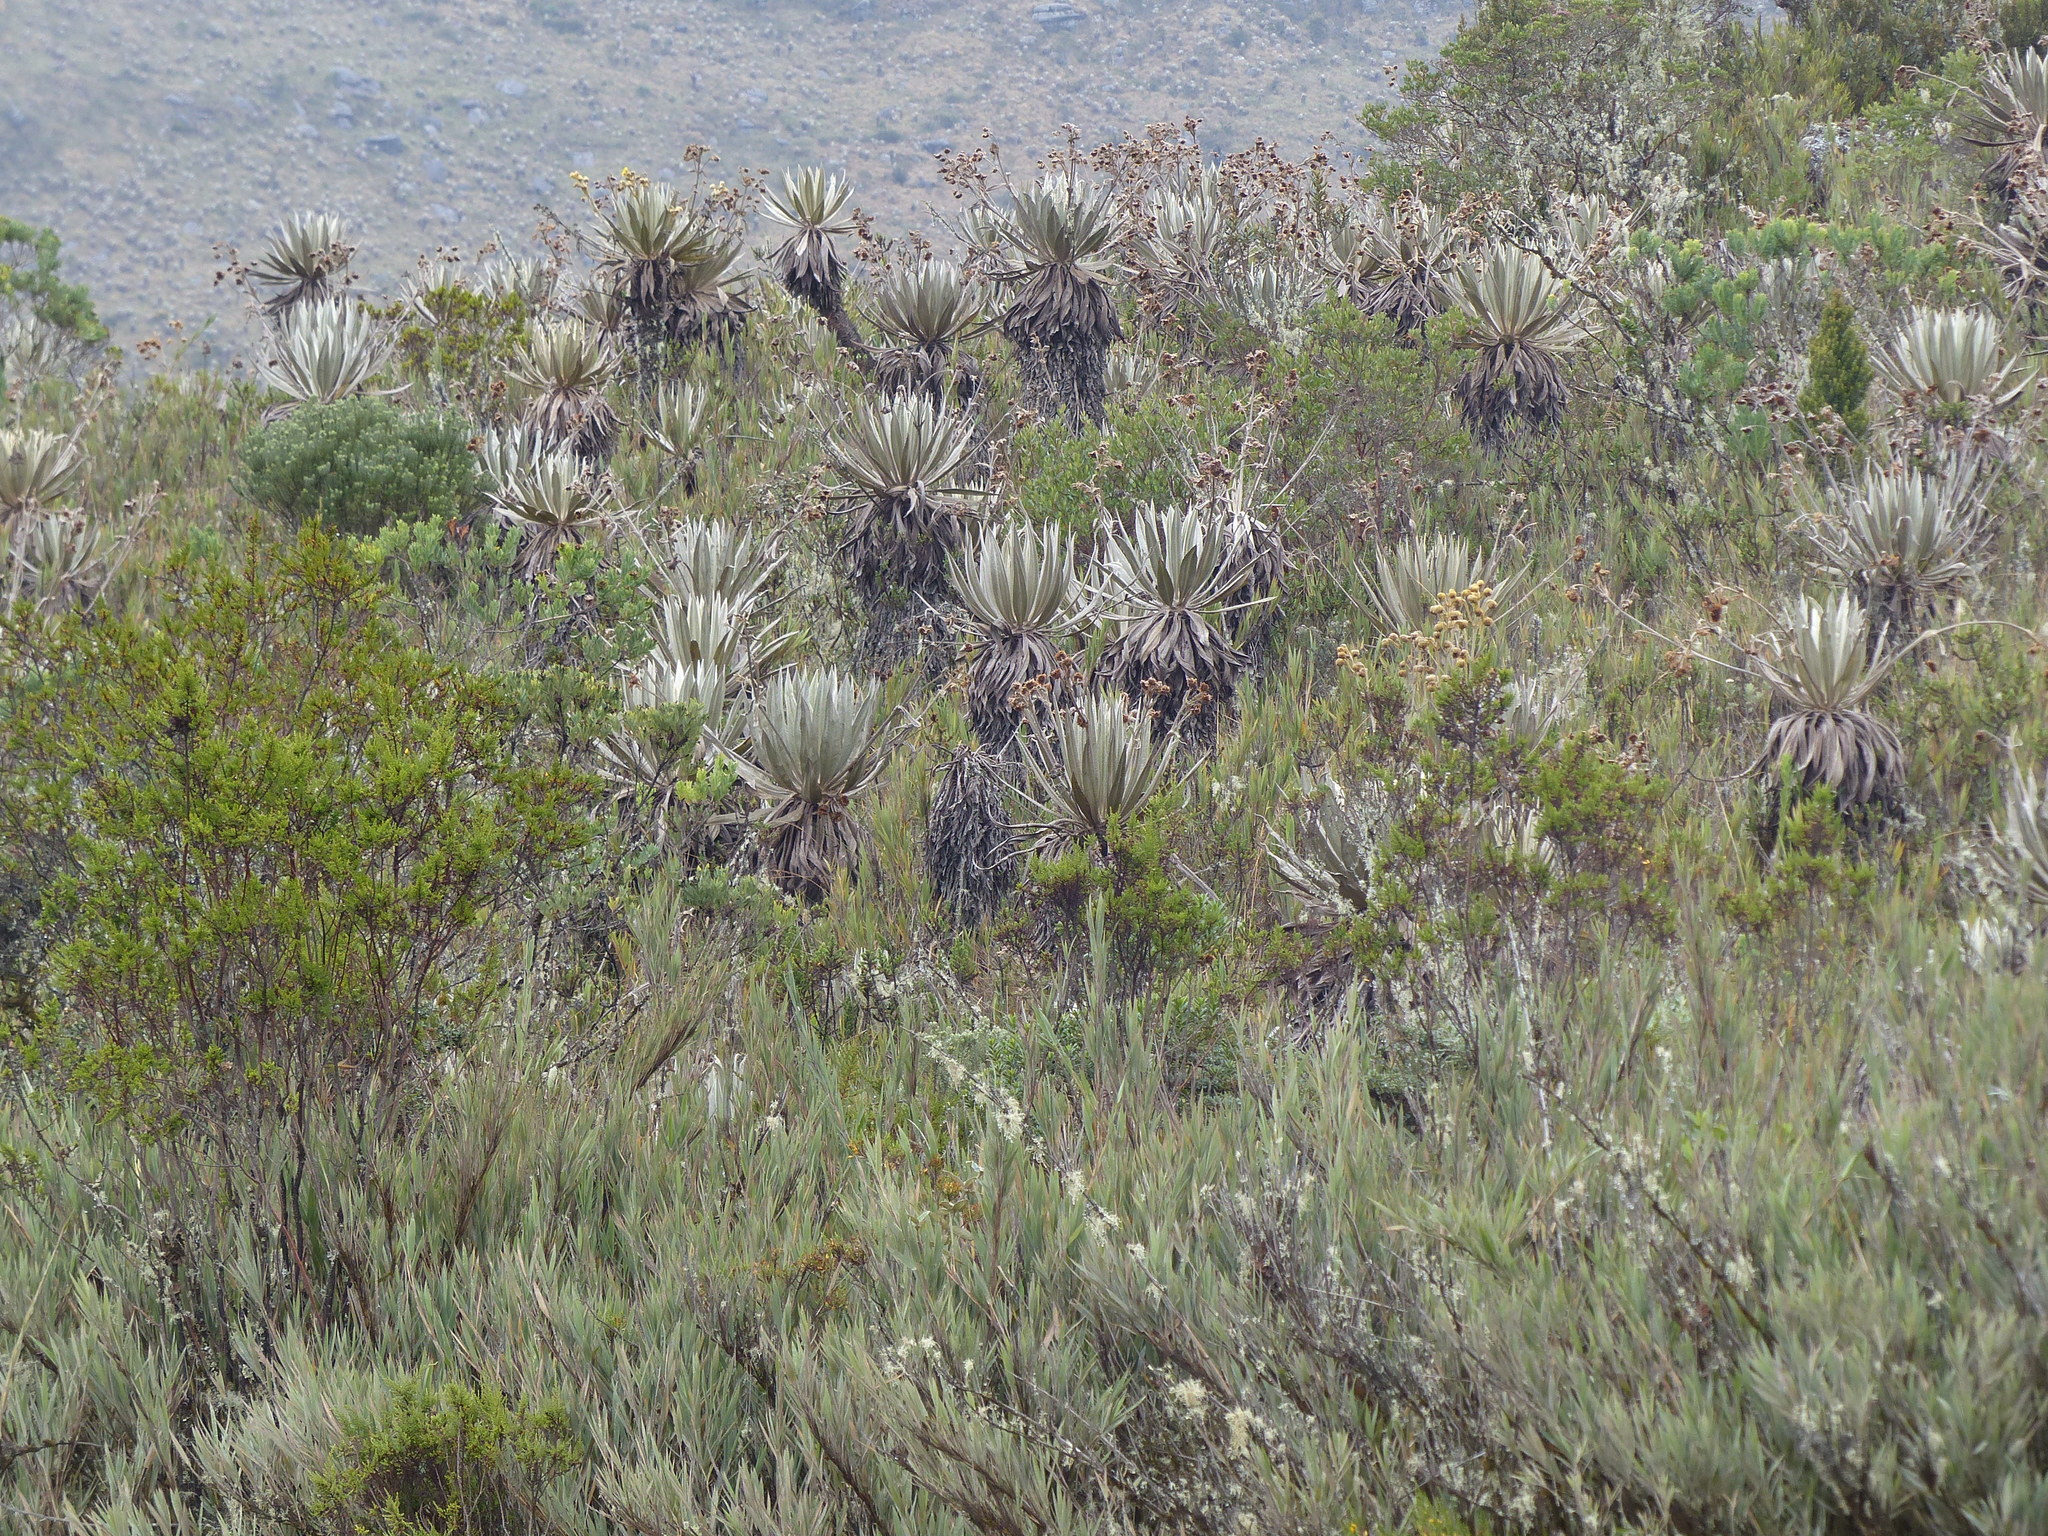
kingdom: Plantae
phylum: Tracheophyta
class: Magnoliopsida
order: Asterales
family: Asteraceae
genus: Espeletia
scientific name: Espeletia grandiflora
